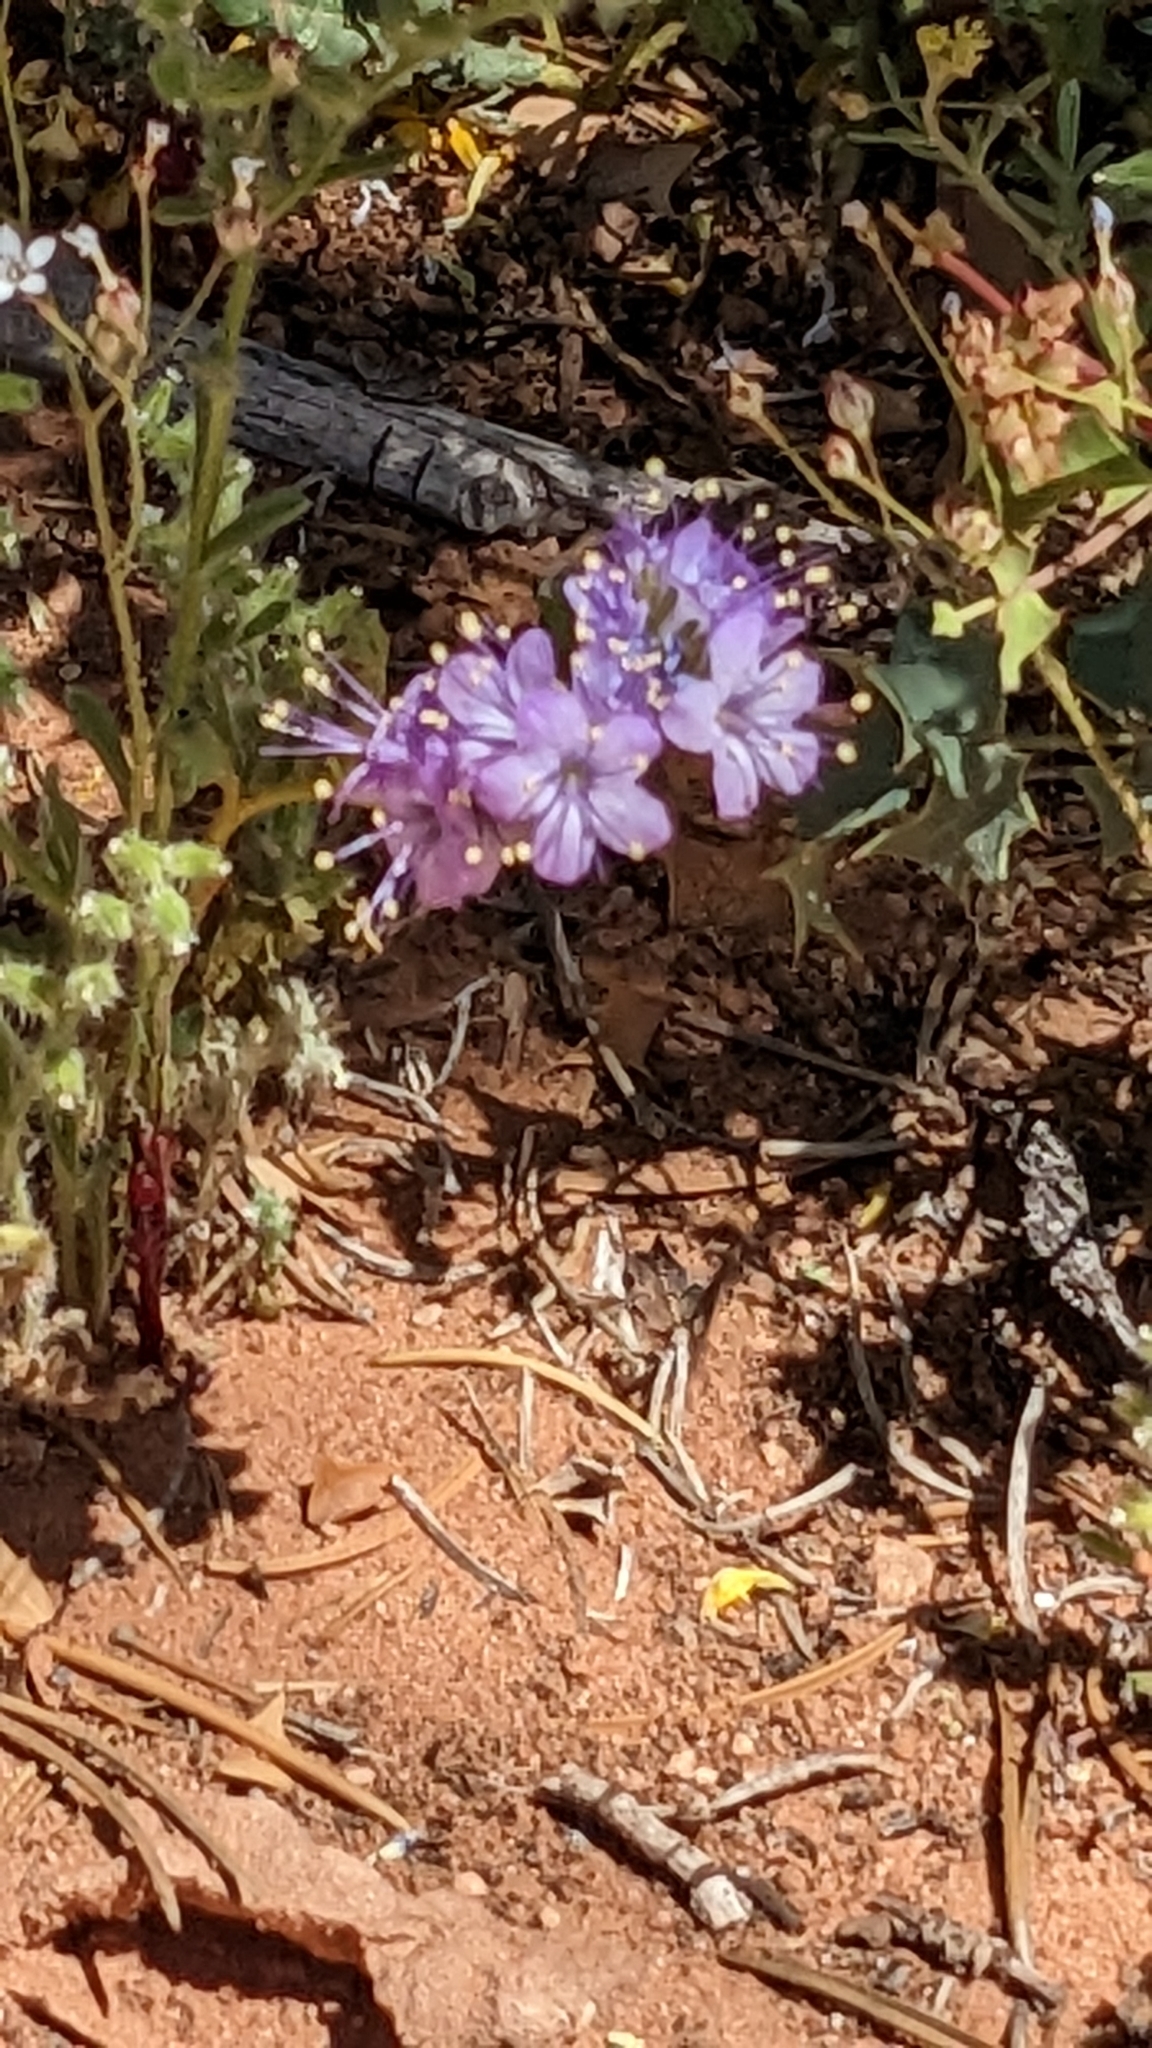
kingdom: Plantae
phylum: Tracheophyta
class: Magnoliopsida
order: Boraginales
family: Hydrophyllaceae
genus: Phacelia
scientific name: Phacelia crenulata
